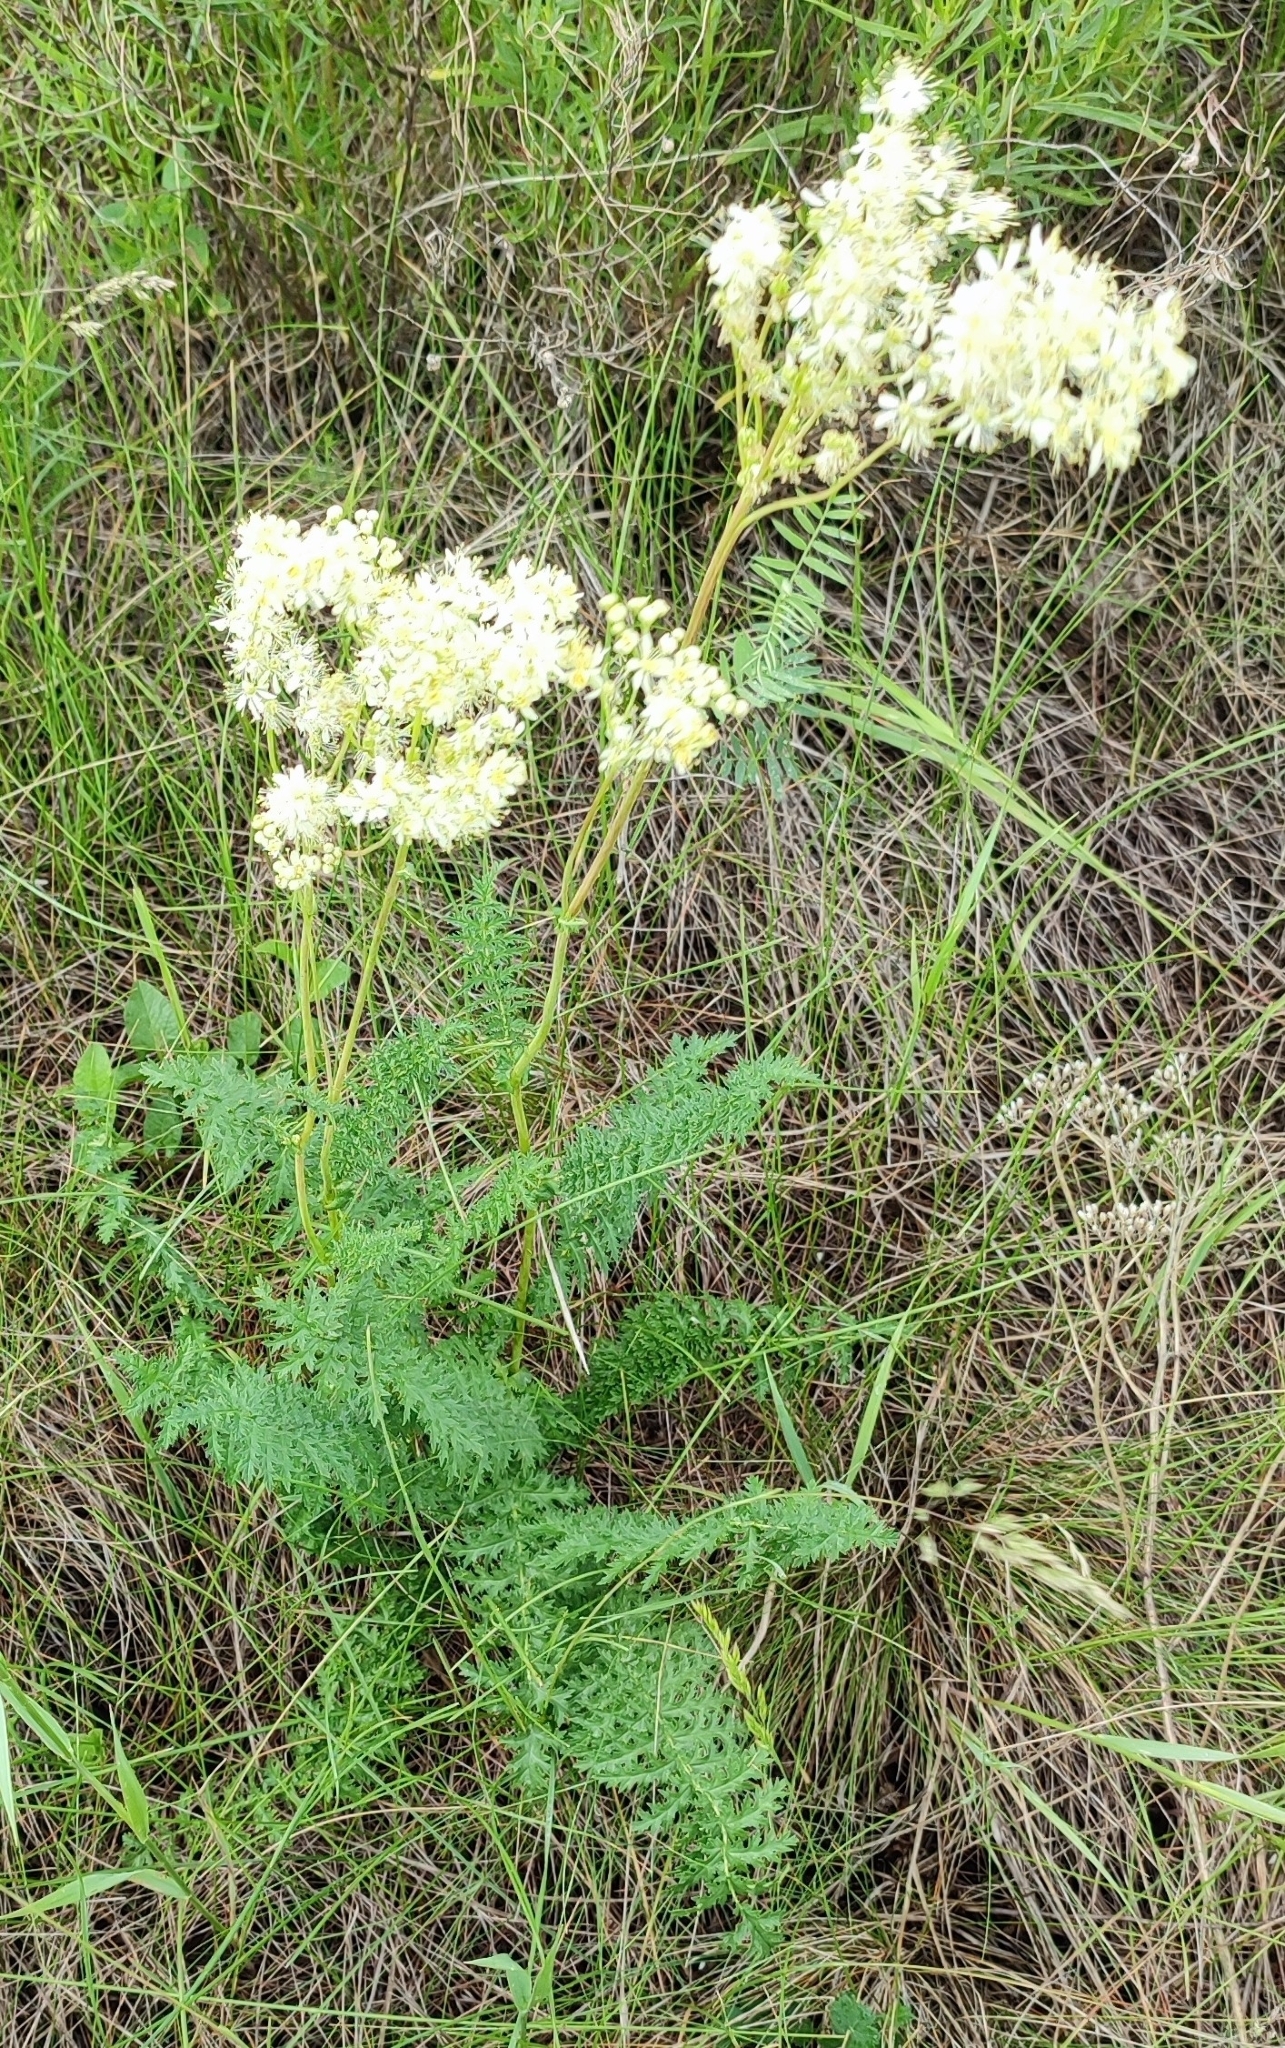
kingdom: Plantae
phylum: Tracheophyta
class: Magnoliopsida
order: Rosales
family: Rosaceae
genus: Filipendula
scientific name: Filipendula vulgaris
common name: Dropwort
